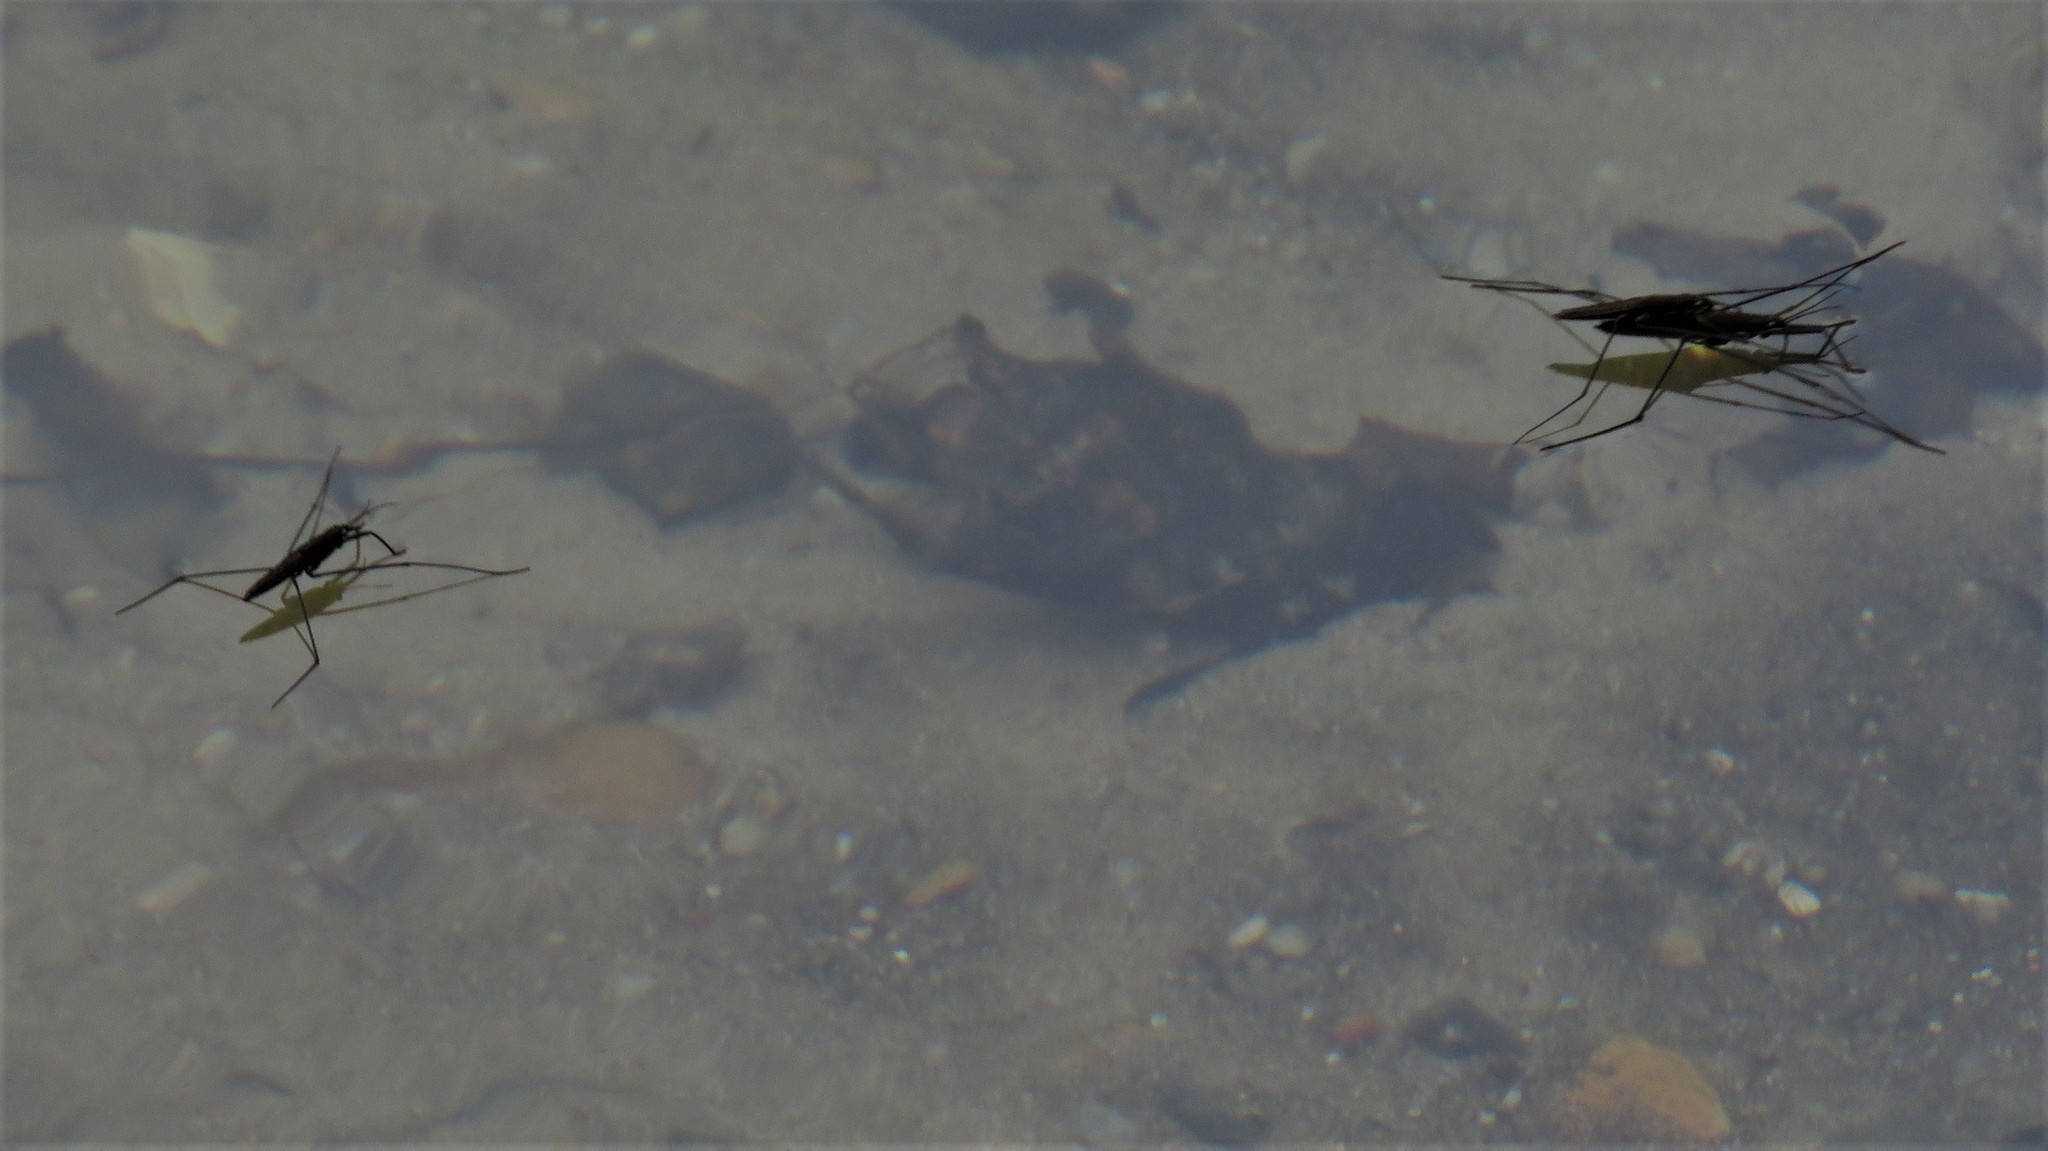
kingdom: Animalia
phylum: Arthropoda
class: Insecta
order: Hemiptera
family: Gerridae
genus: Aquarius
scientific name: Aquarius najas
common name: River skater
